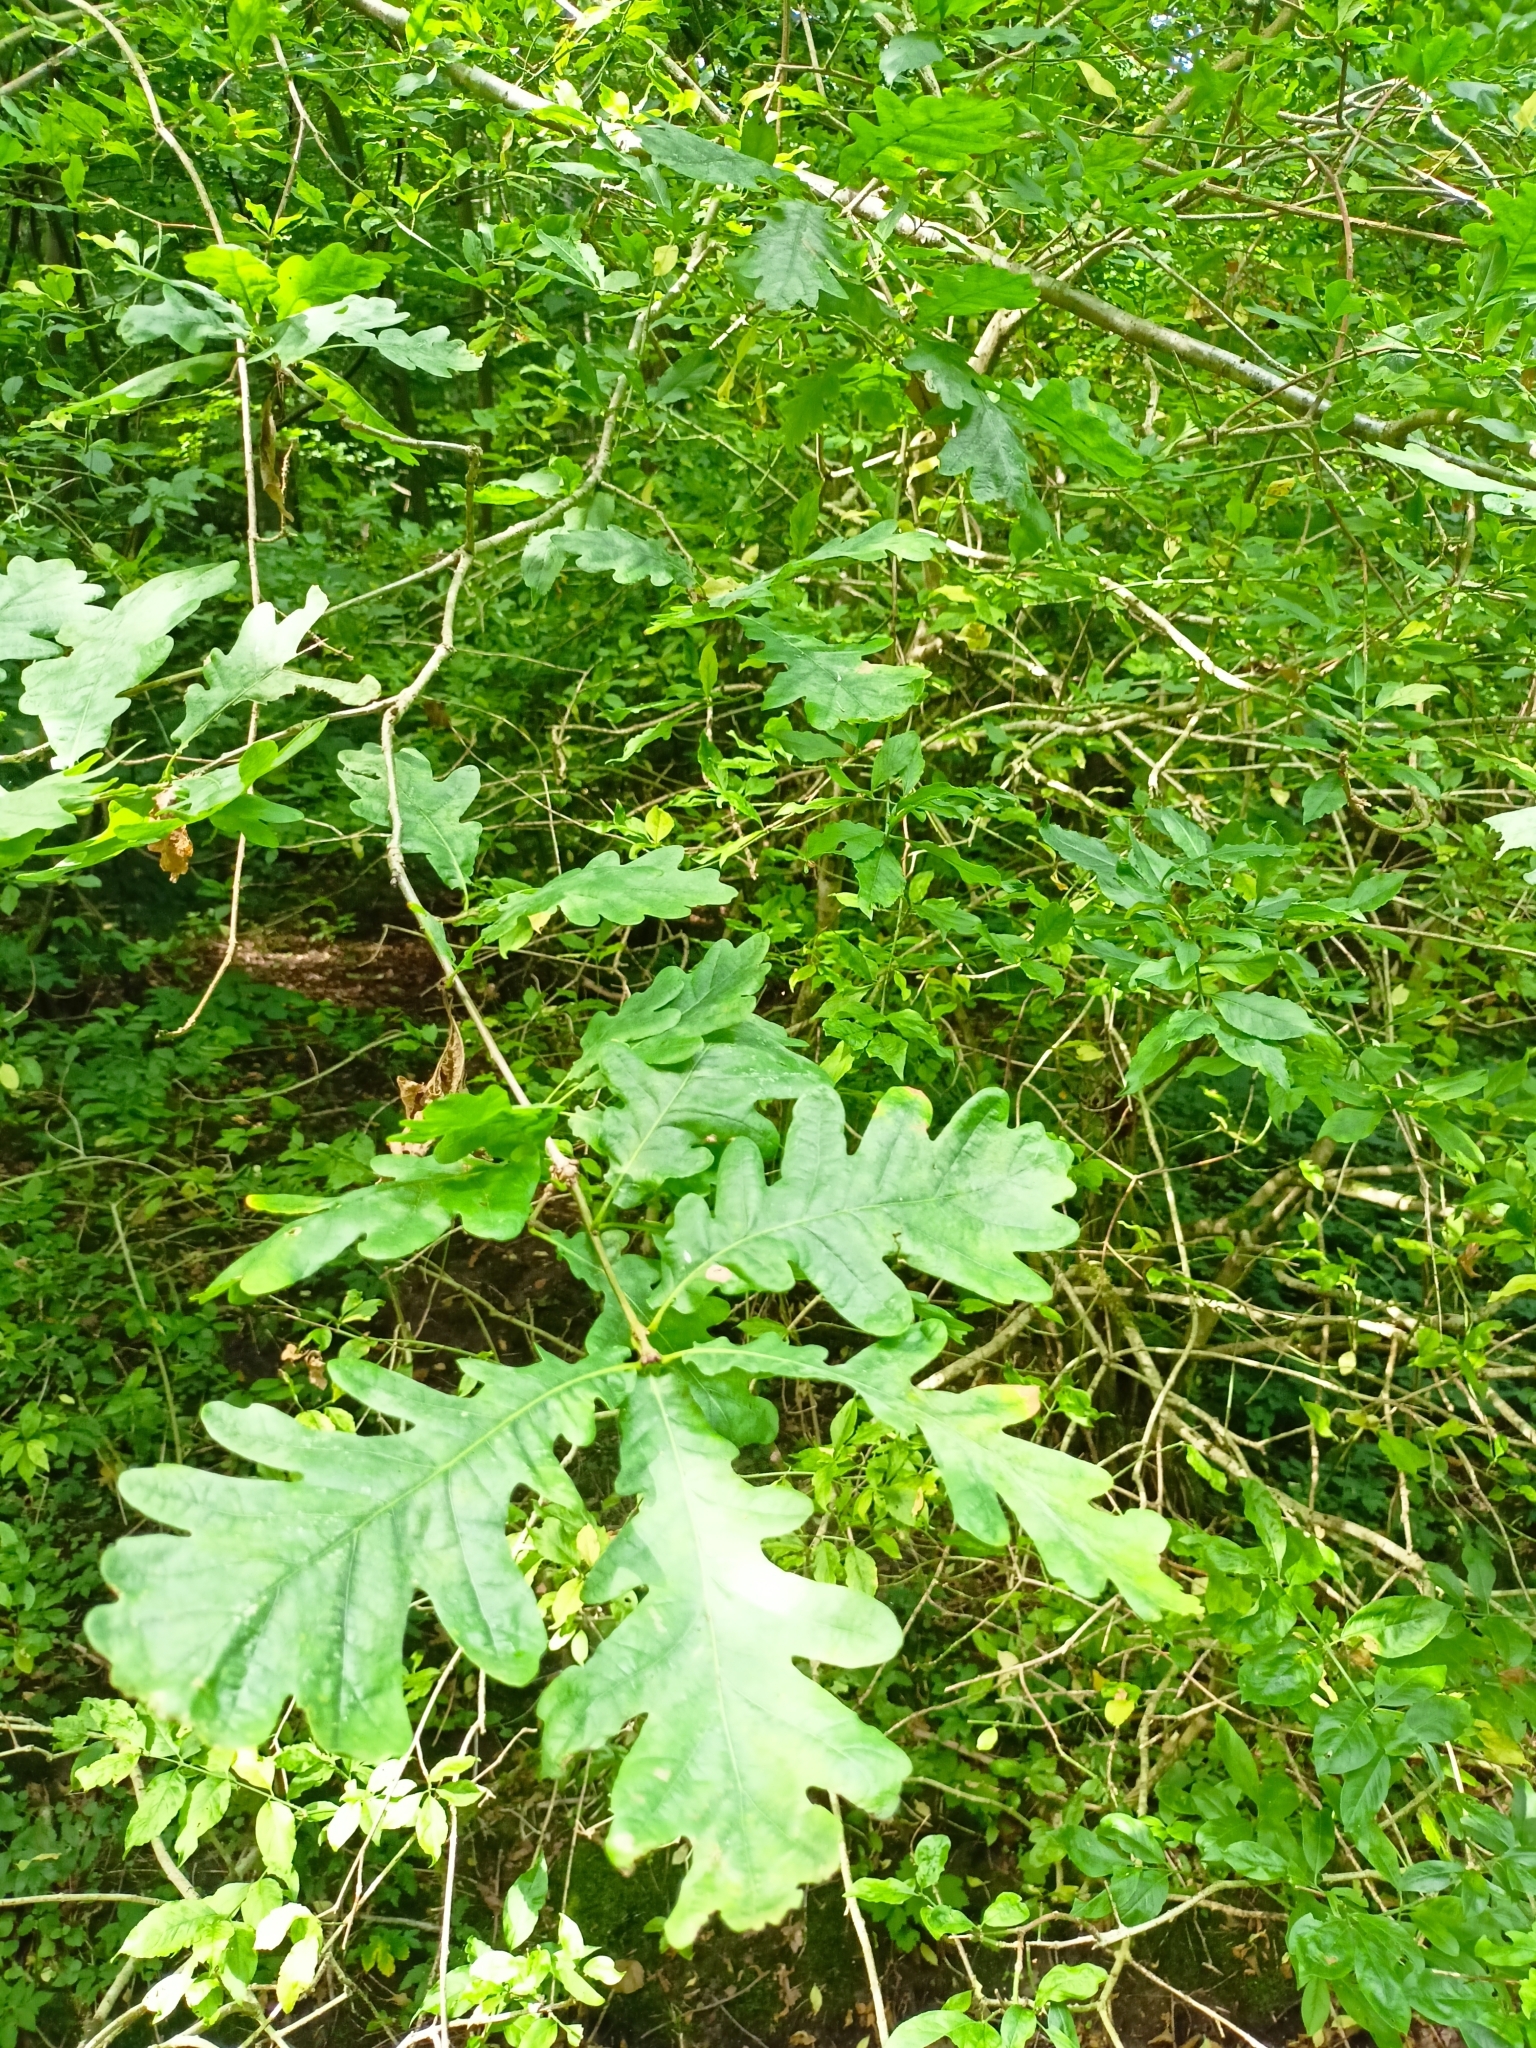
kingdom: Plantae
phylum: Tracheophyta
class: Magnoliopsida
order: Fagales
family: Fagaceae
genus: Quercus
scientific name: Quercus robur
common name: Pedunculate oak
